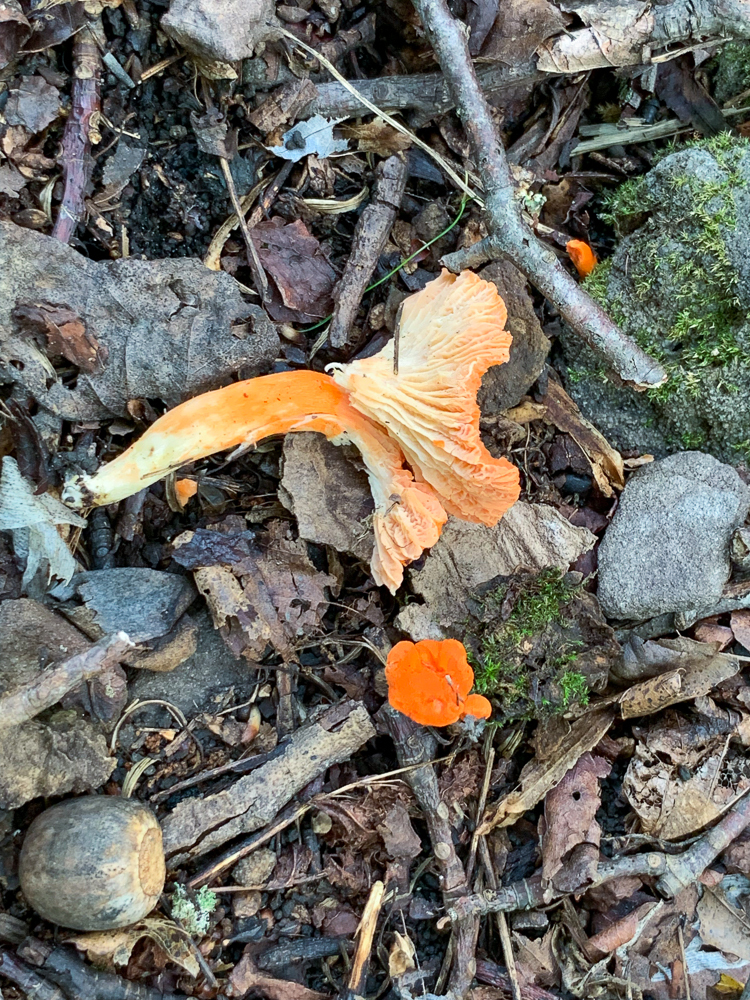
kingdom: Fungi
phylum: Basidiomycota
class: Agaricomycetes
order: Cantharellales
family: Hydnaceae
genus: Cantharellus
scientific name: Cantharellus cinnabarinus
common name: Cinnabar chanterelle
